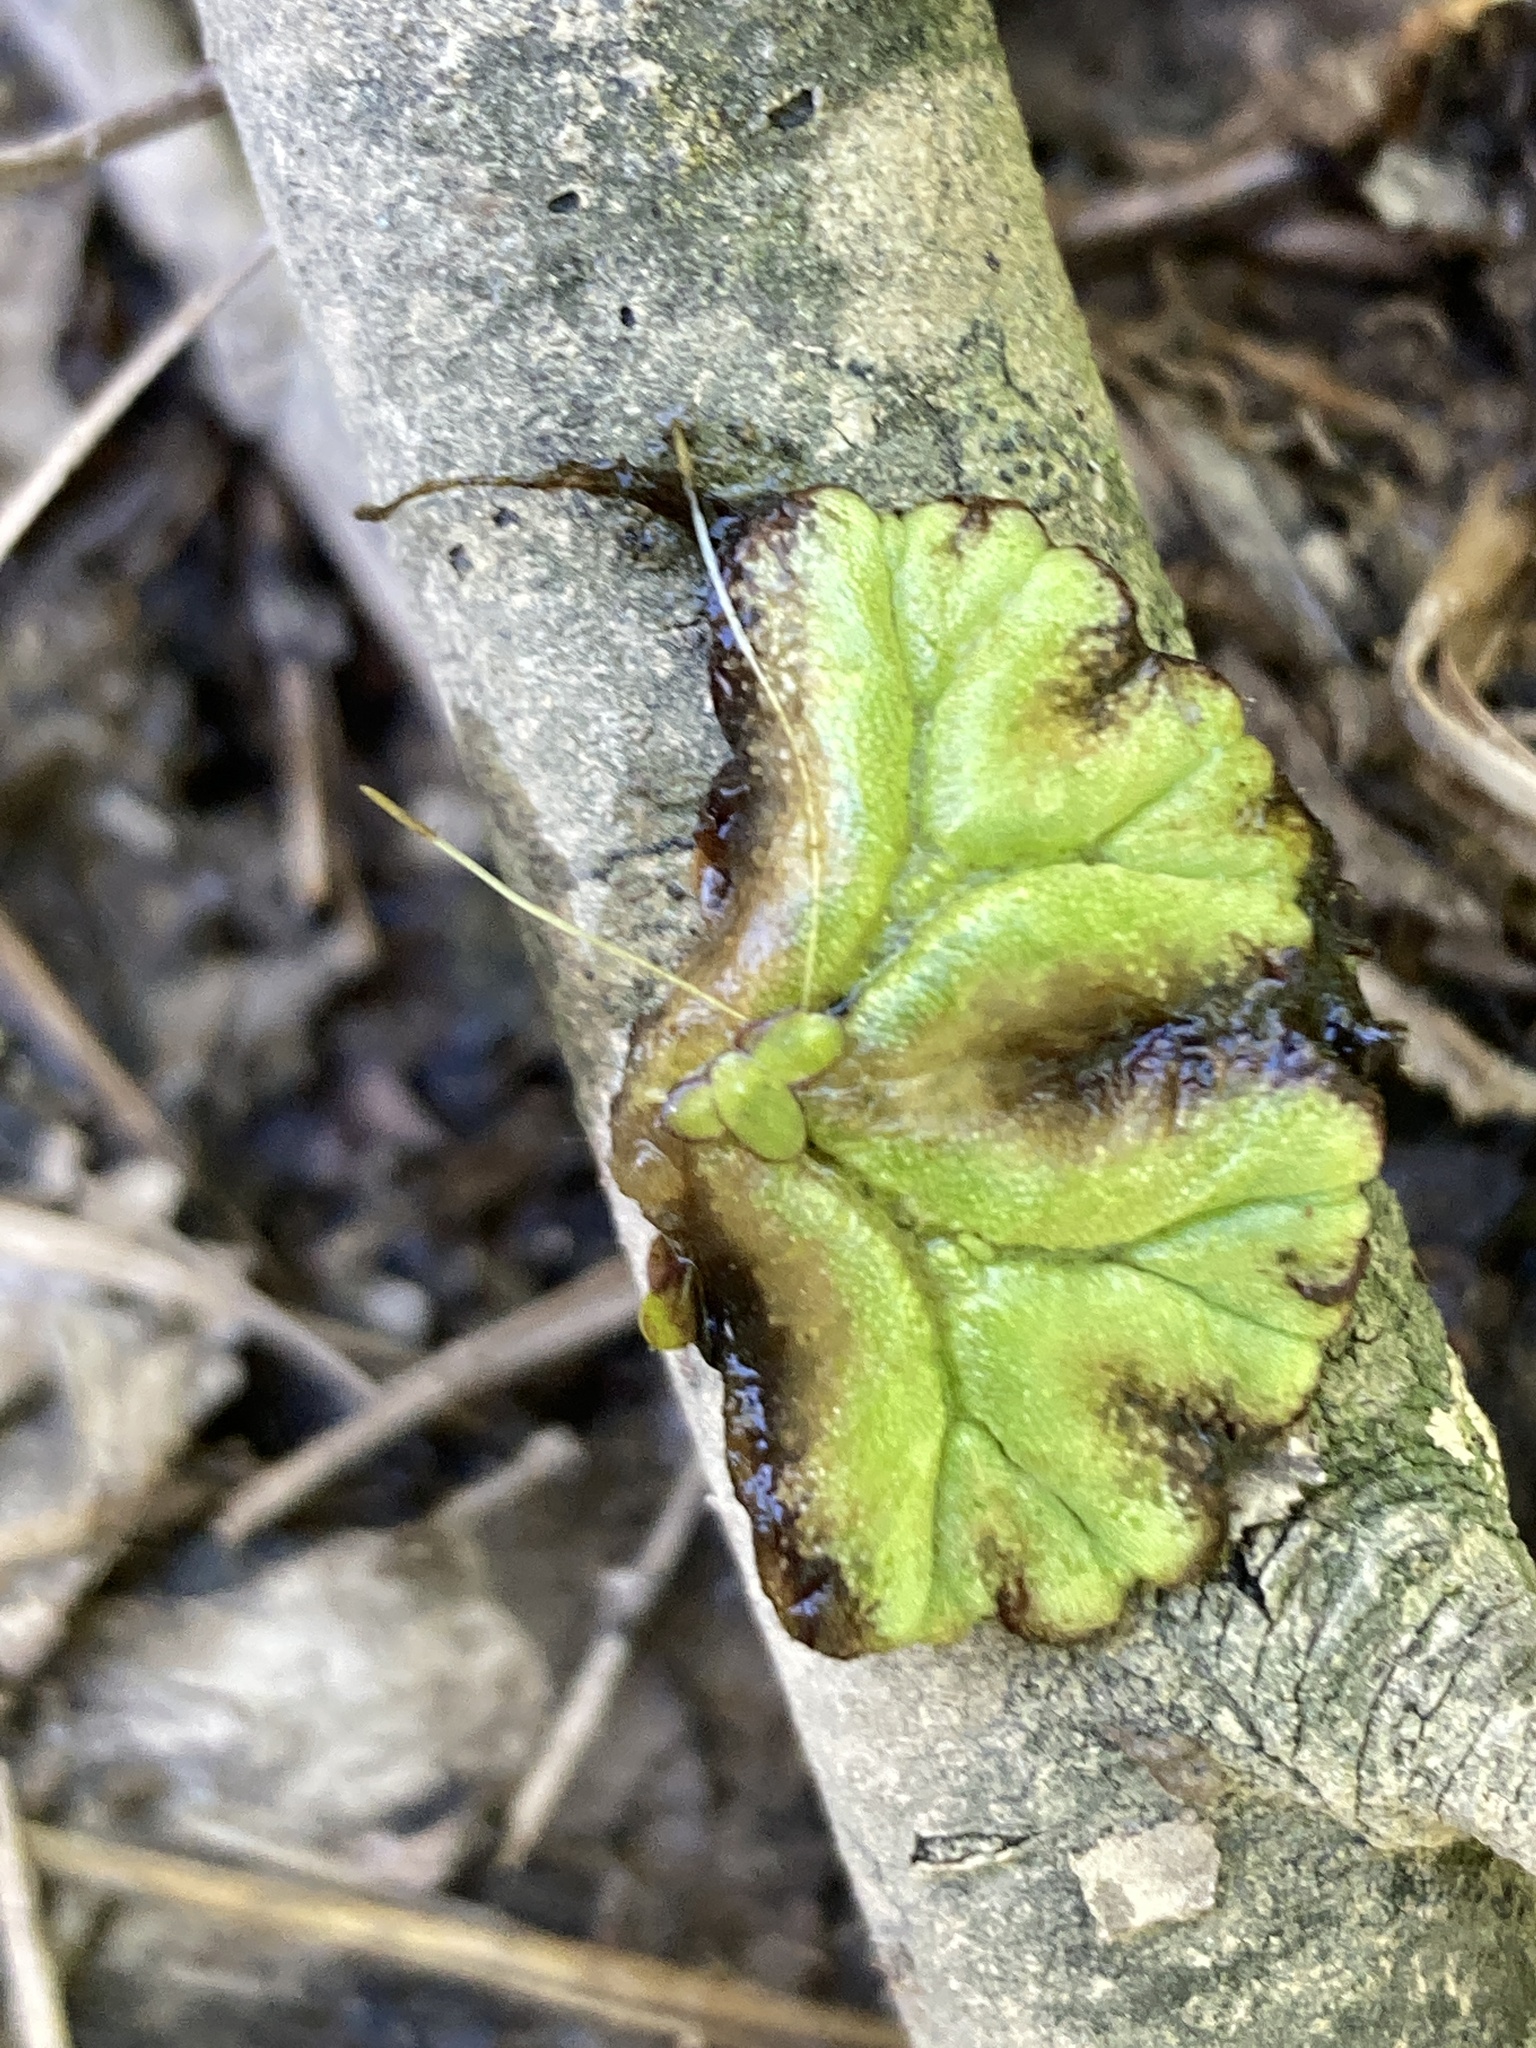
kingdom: Plantae
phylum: Marchantiophyta
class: Marchantiopsida
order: Marchantiales
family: Ricciaceae
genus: Ricciocarpos
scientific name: Ricciocarpos natans
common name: Purple-fringed liverwort
